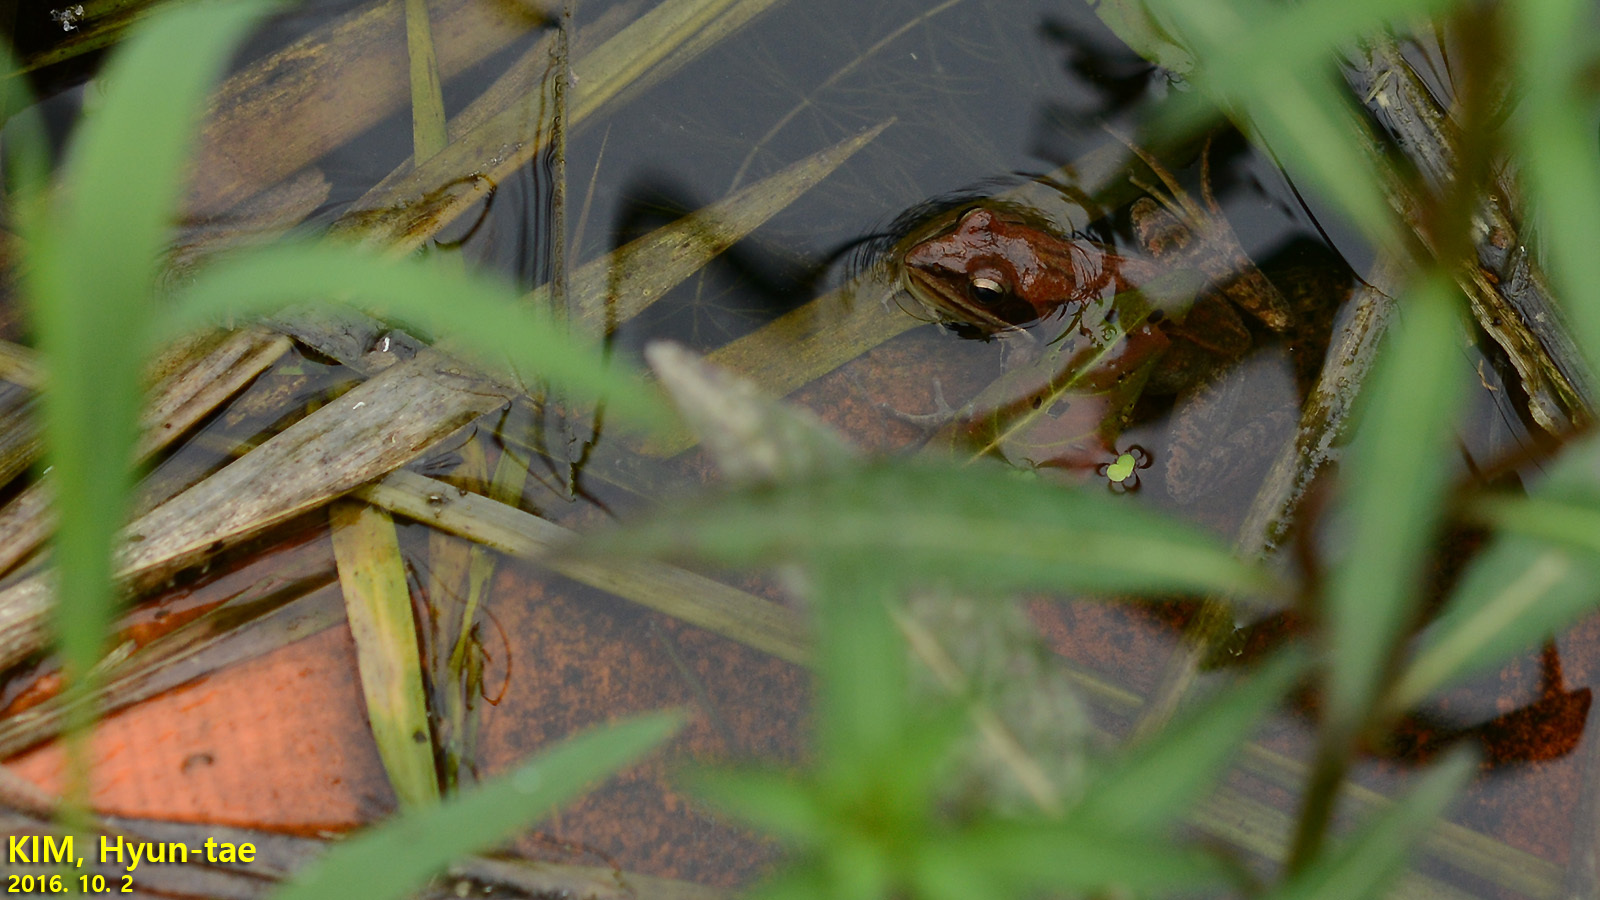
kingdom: Animalia
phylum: Chordata
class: Amphibia
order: Anura
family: Ranidae
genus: Rana
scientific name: Rana coreana
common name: Korean brown frog
